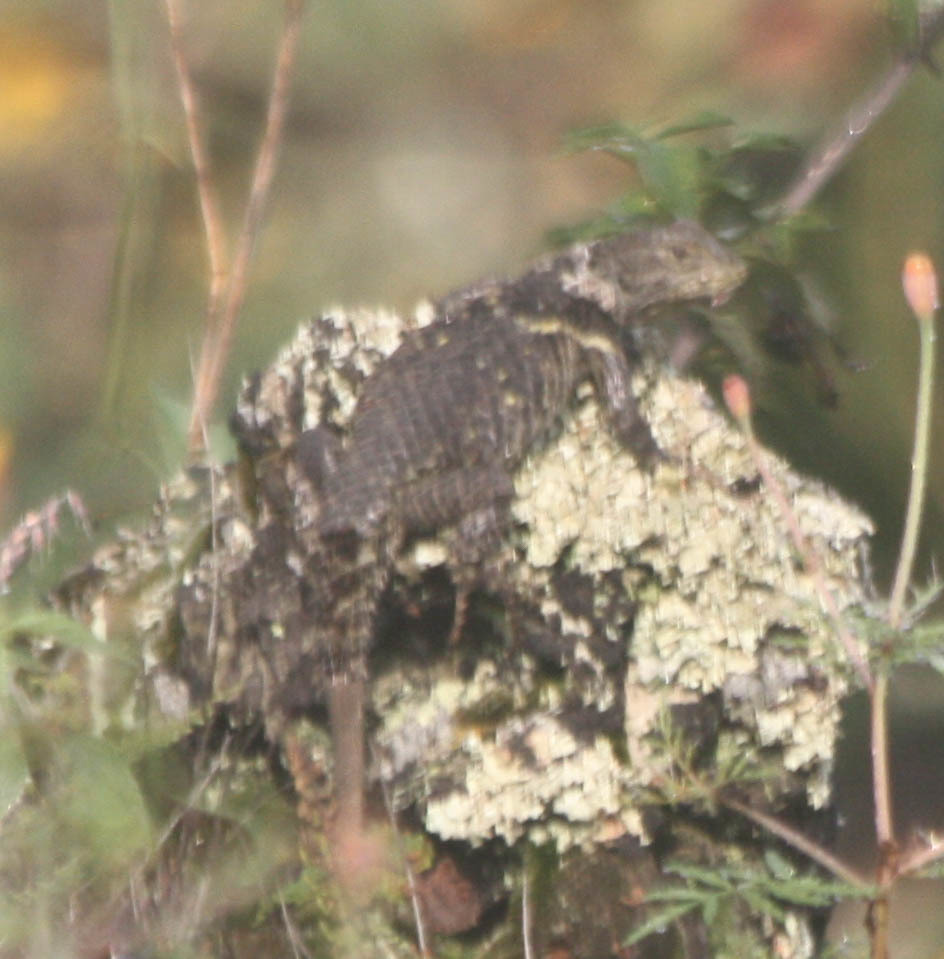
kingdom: Animalia
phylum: Chordata
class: Squamata
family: Phrynosomatidae
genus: Sceloporus
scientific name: Sceloporus torquatus
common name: Central plateau torquate lizard [melanogaster]
